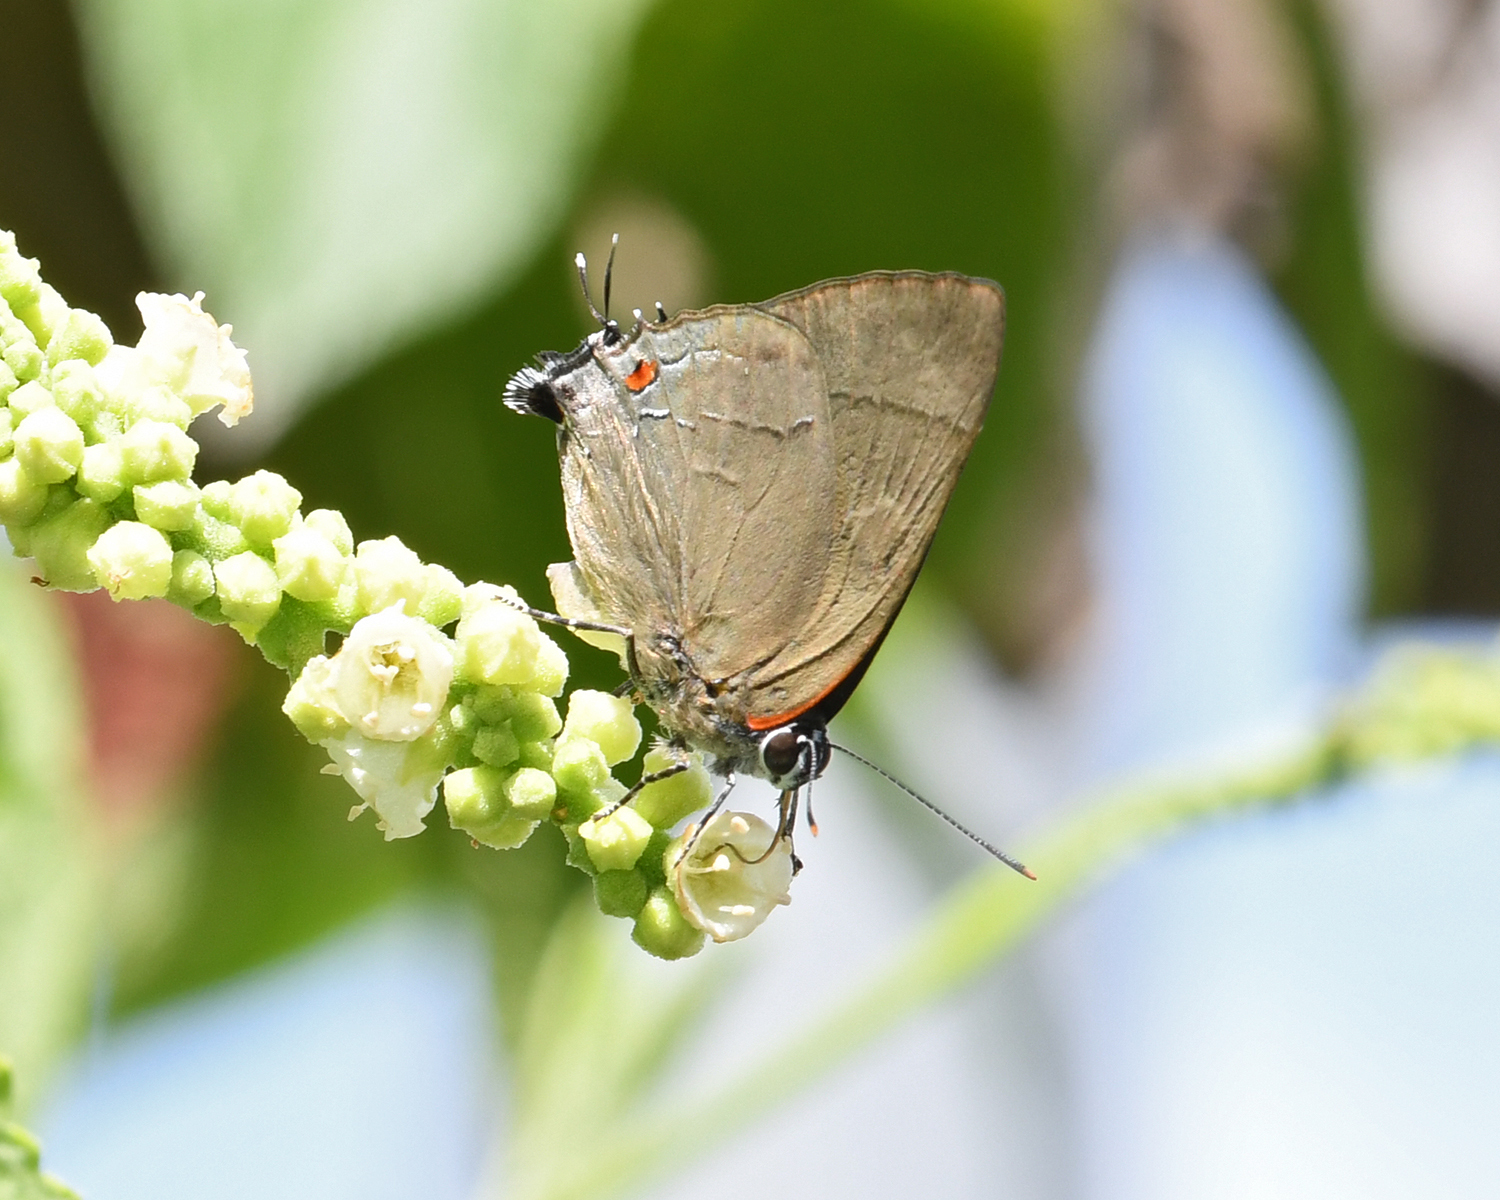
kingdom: Animalia
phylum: Arthropoda
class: Insecta
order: Lepidoptera
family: Lycaenidae
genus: Thecla
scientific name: Thecla spurina
